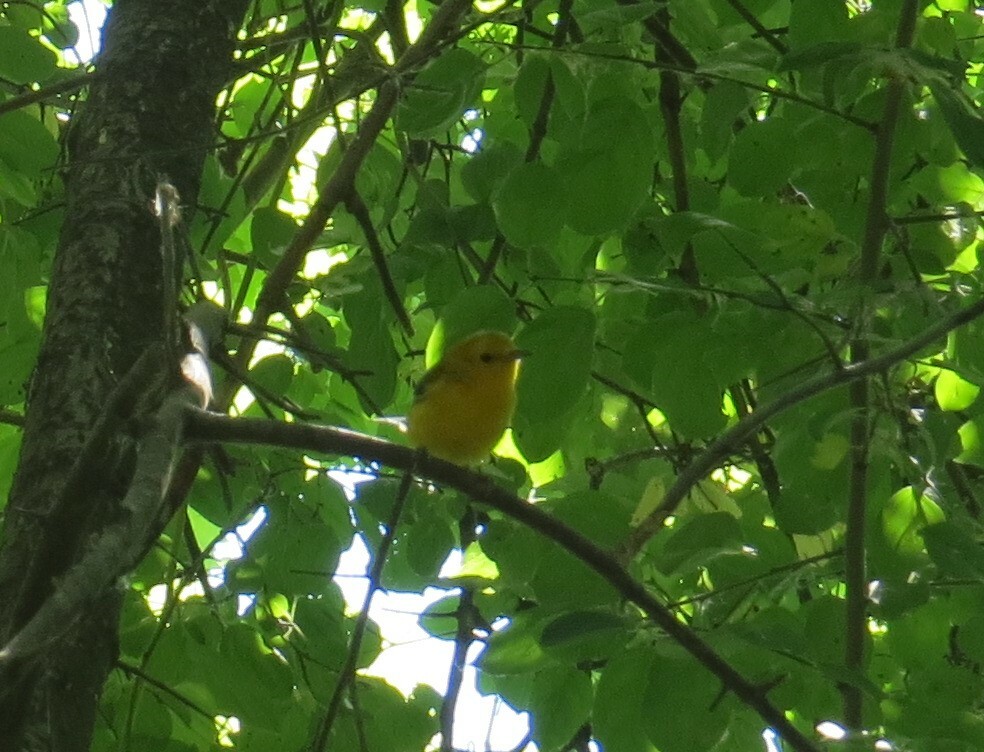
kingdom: Animalia
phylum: Chordata
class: Aves
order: Passeriformes
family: Parulidae
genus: Protonotaria
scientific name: Protonotaria citrea
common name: Prothonotary warbler
